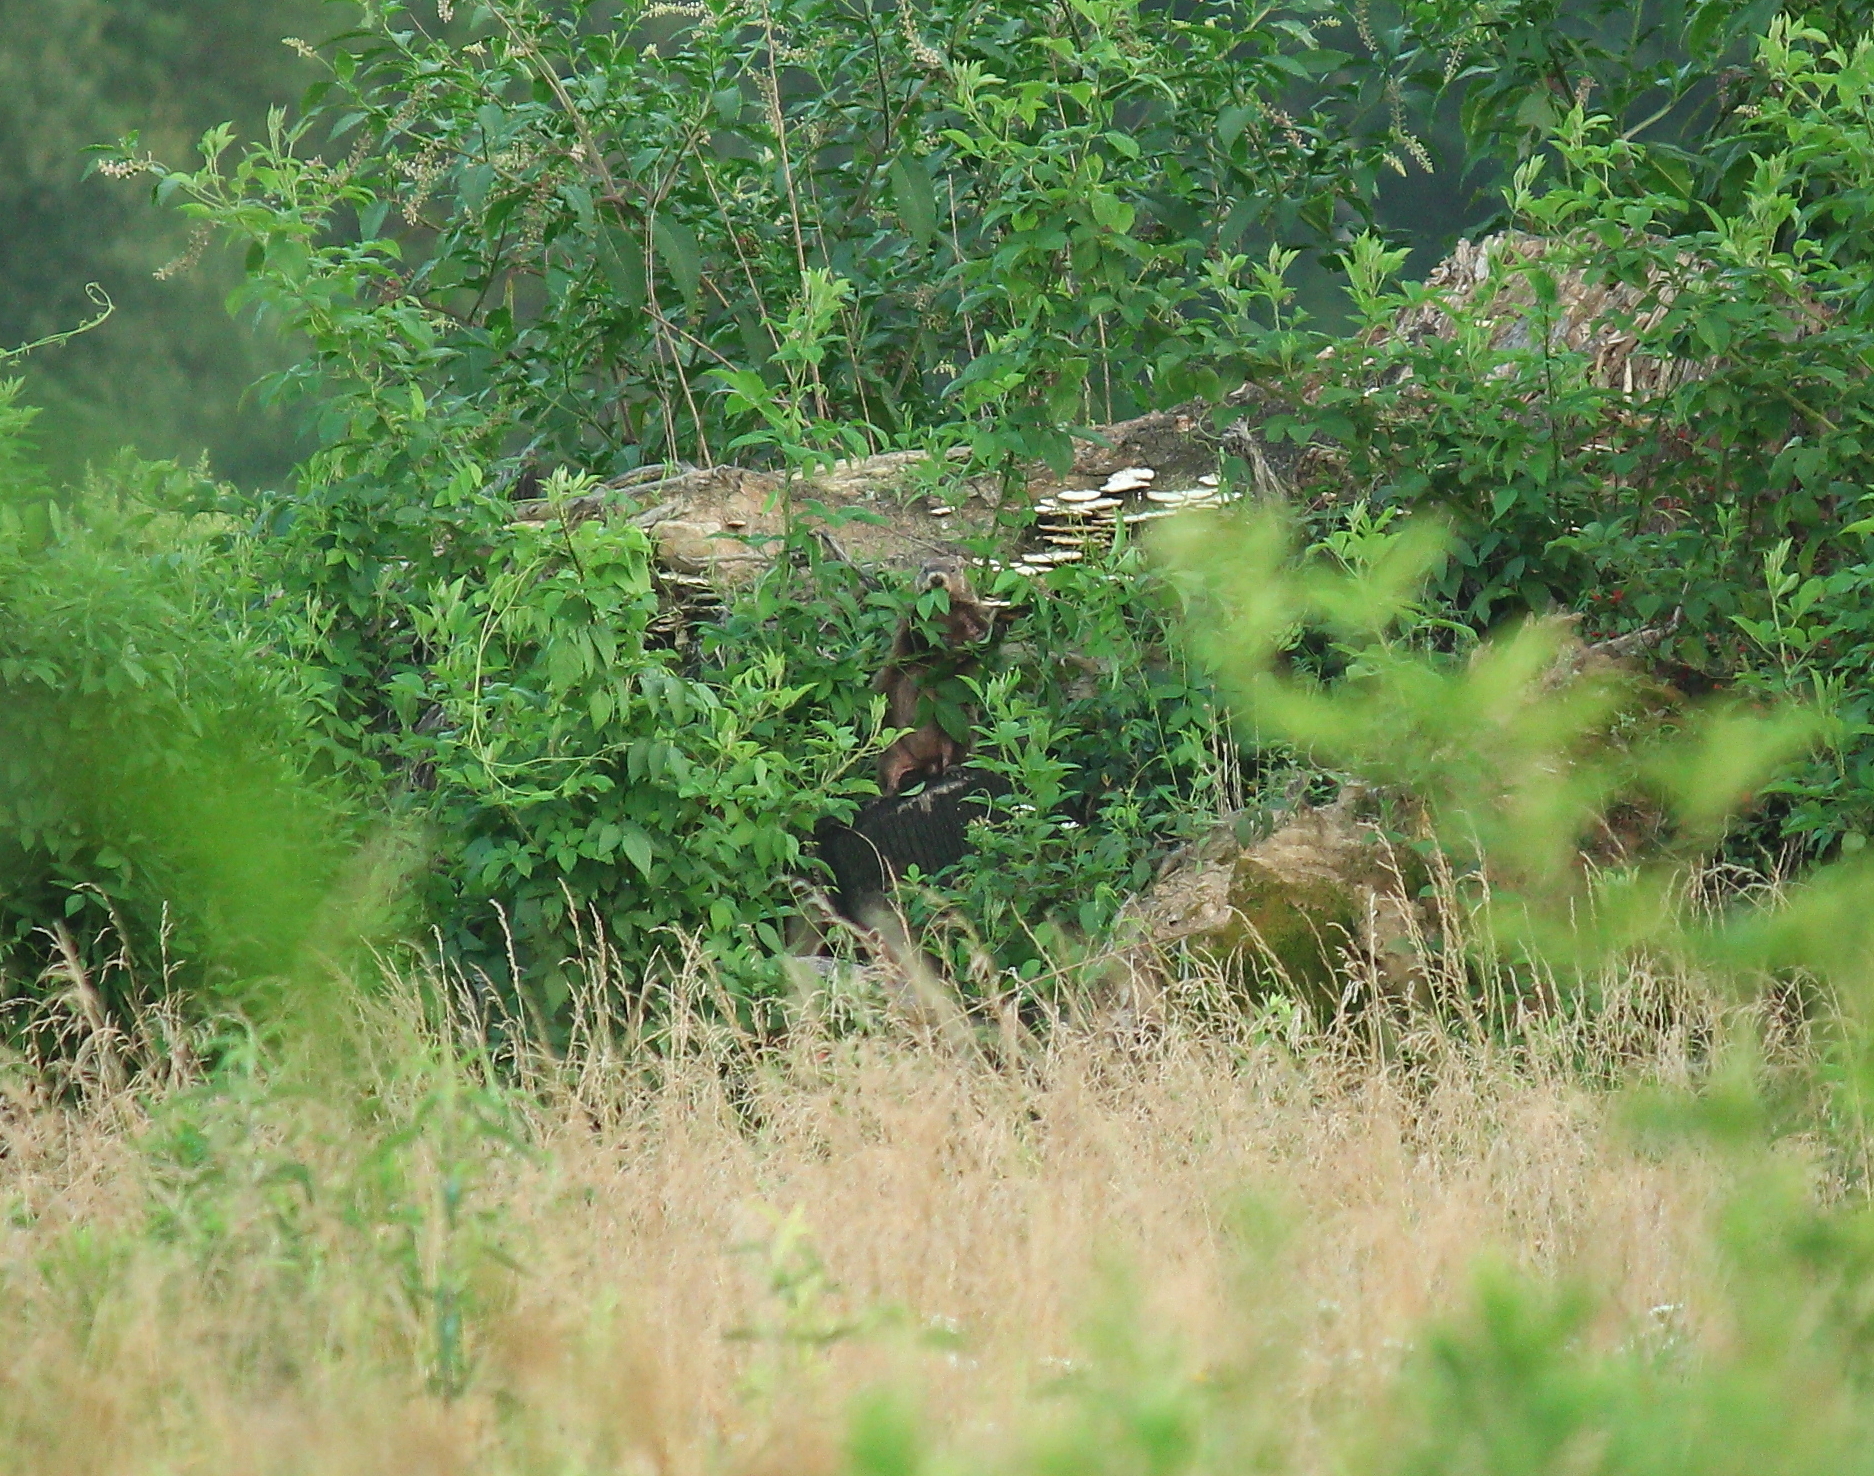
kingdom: Animalia
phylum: Chordata
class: Mammalia
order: Rodentia
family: Sciuridae
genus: Marmota
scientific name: Marmota monax
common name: Groundhog
